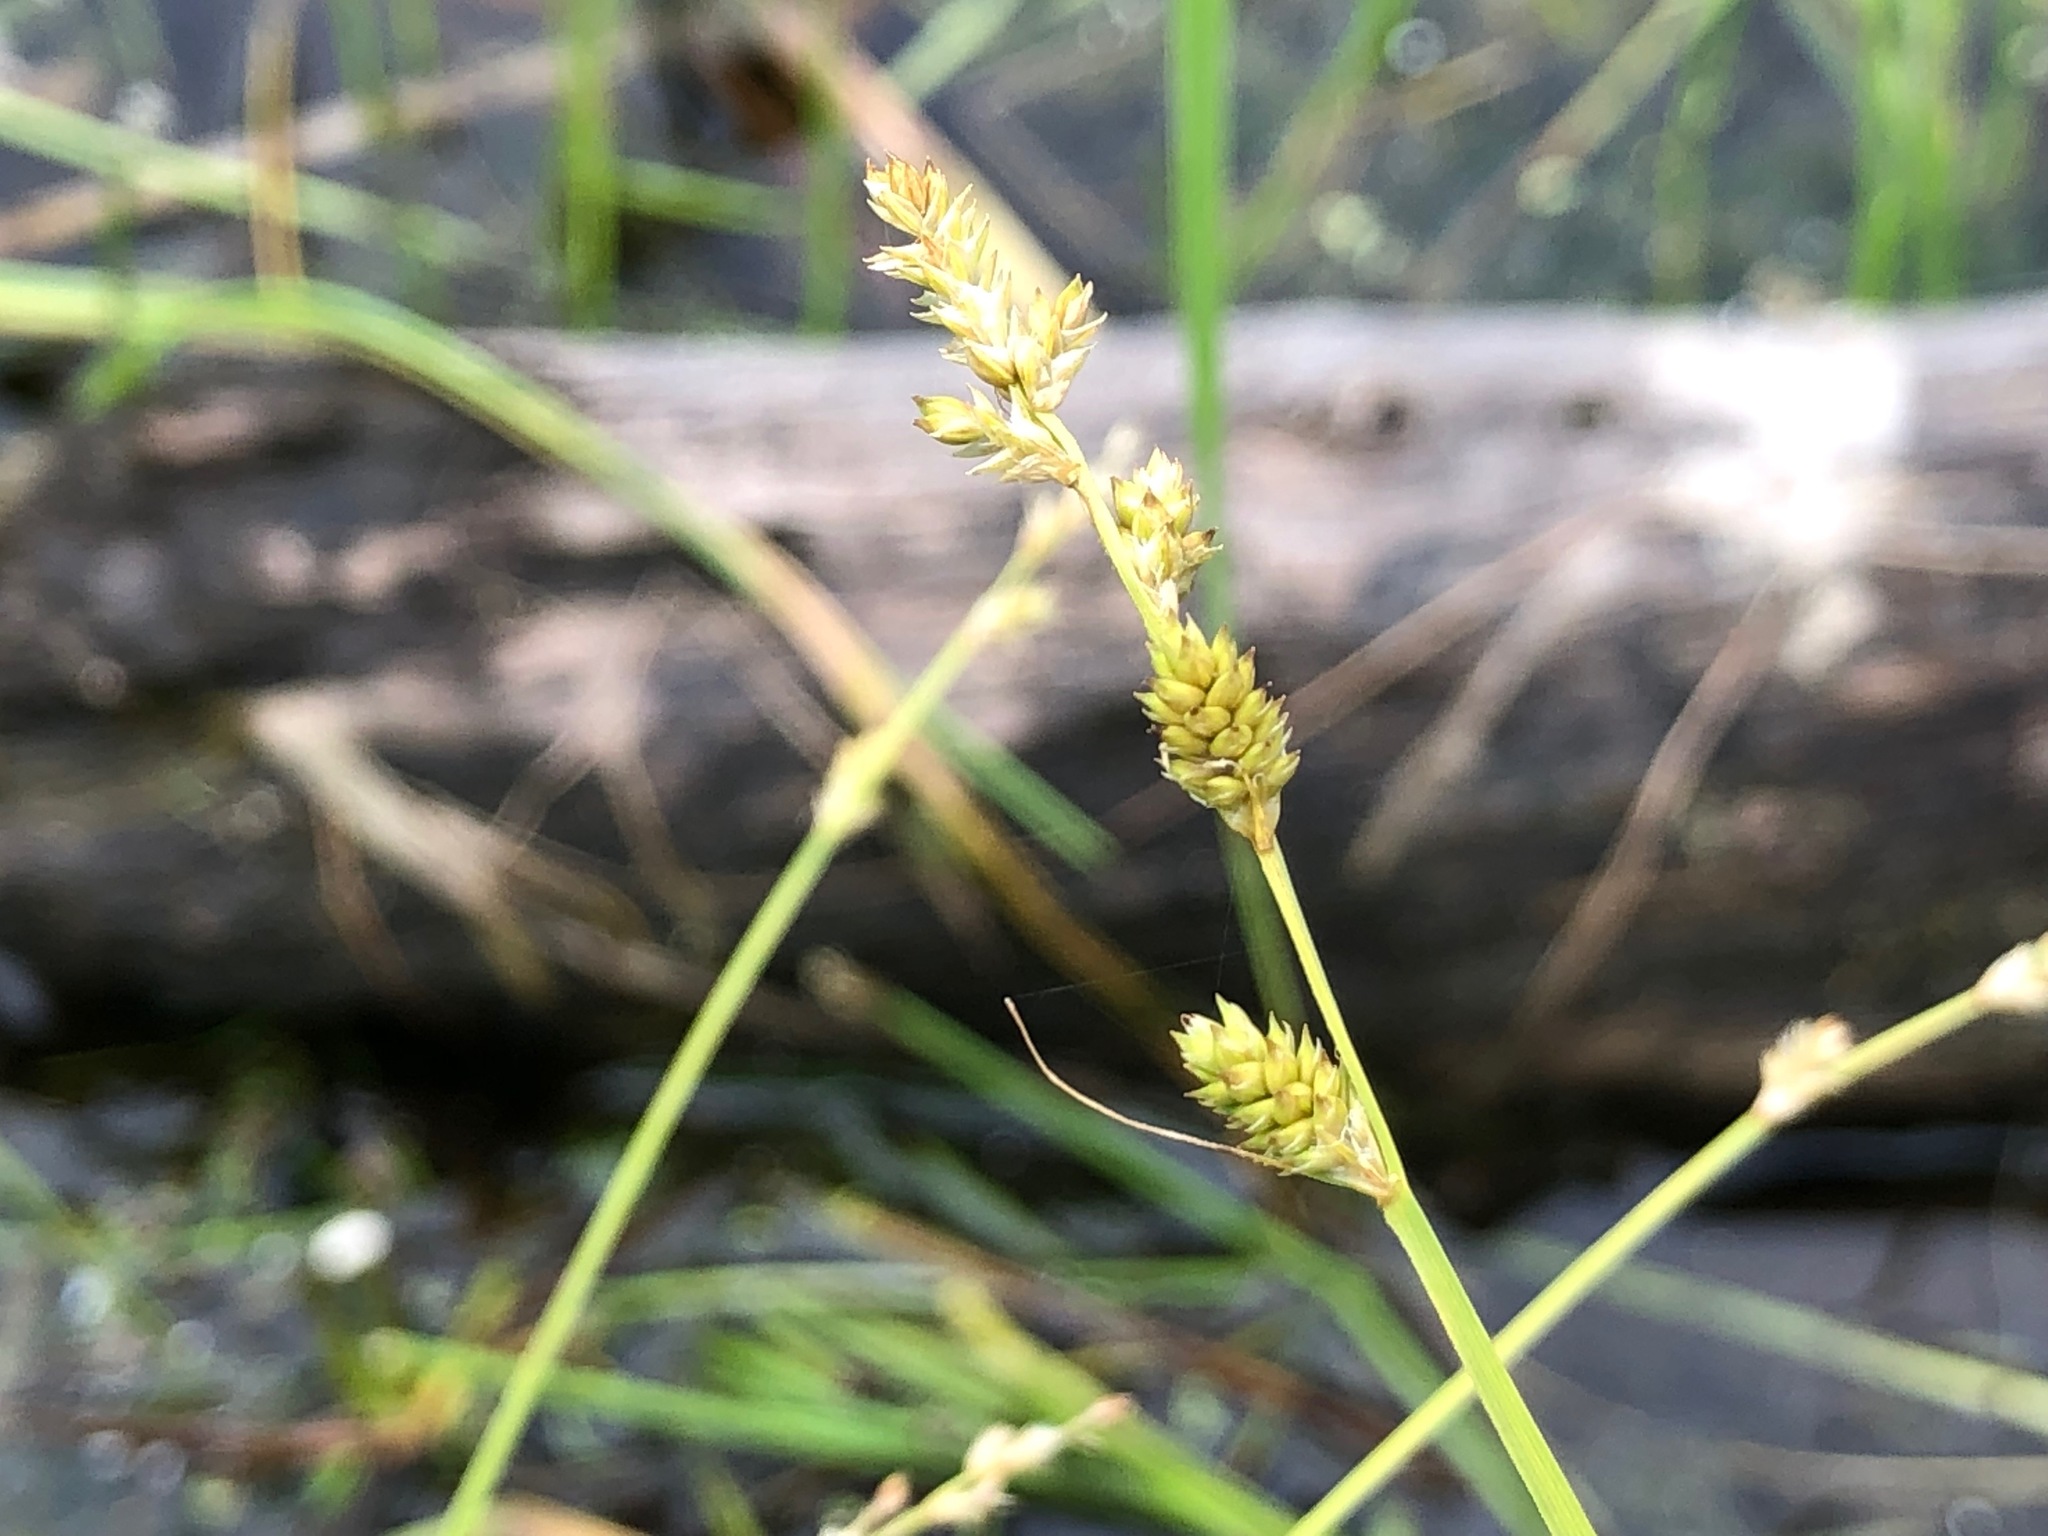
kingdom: Plantae
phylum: Tracheophyta
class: Liliopsida
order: Poales
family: Cyperaceae
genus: Carex
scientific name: Carex canescens
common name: White sedge
